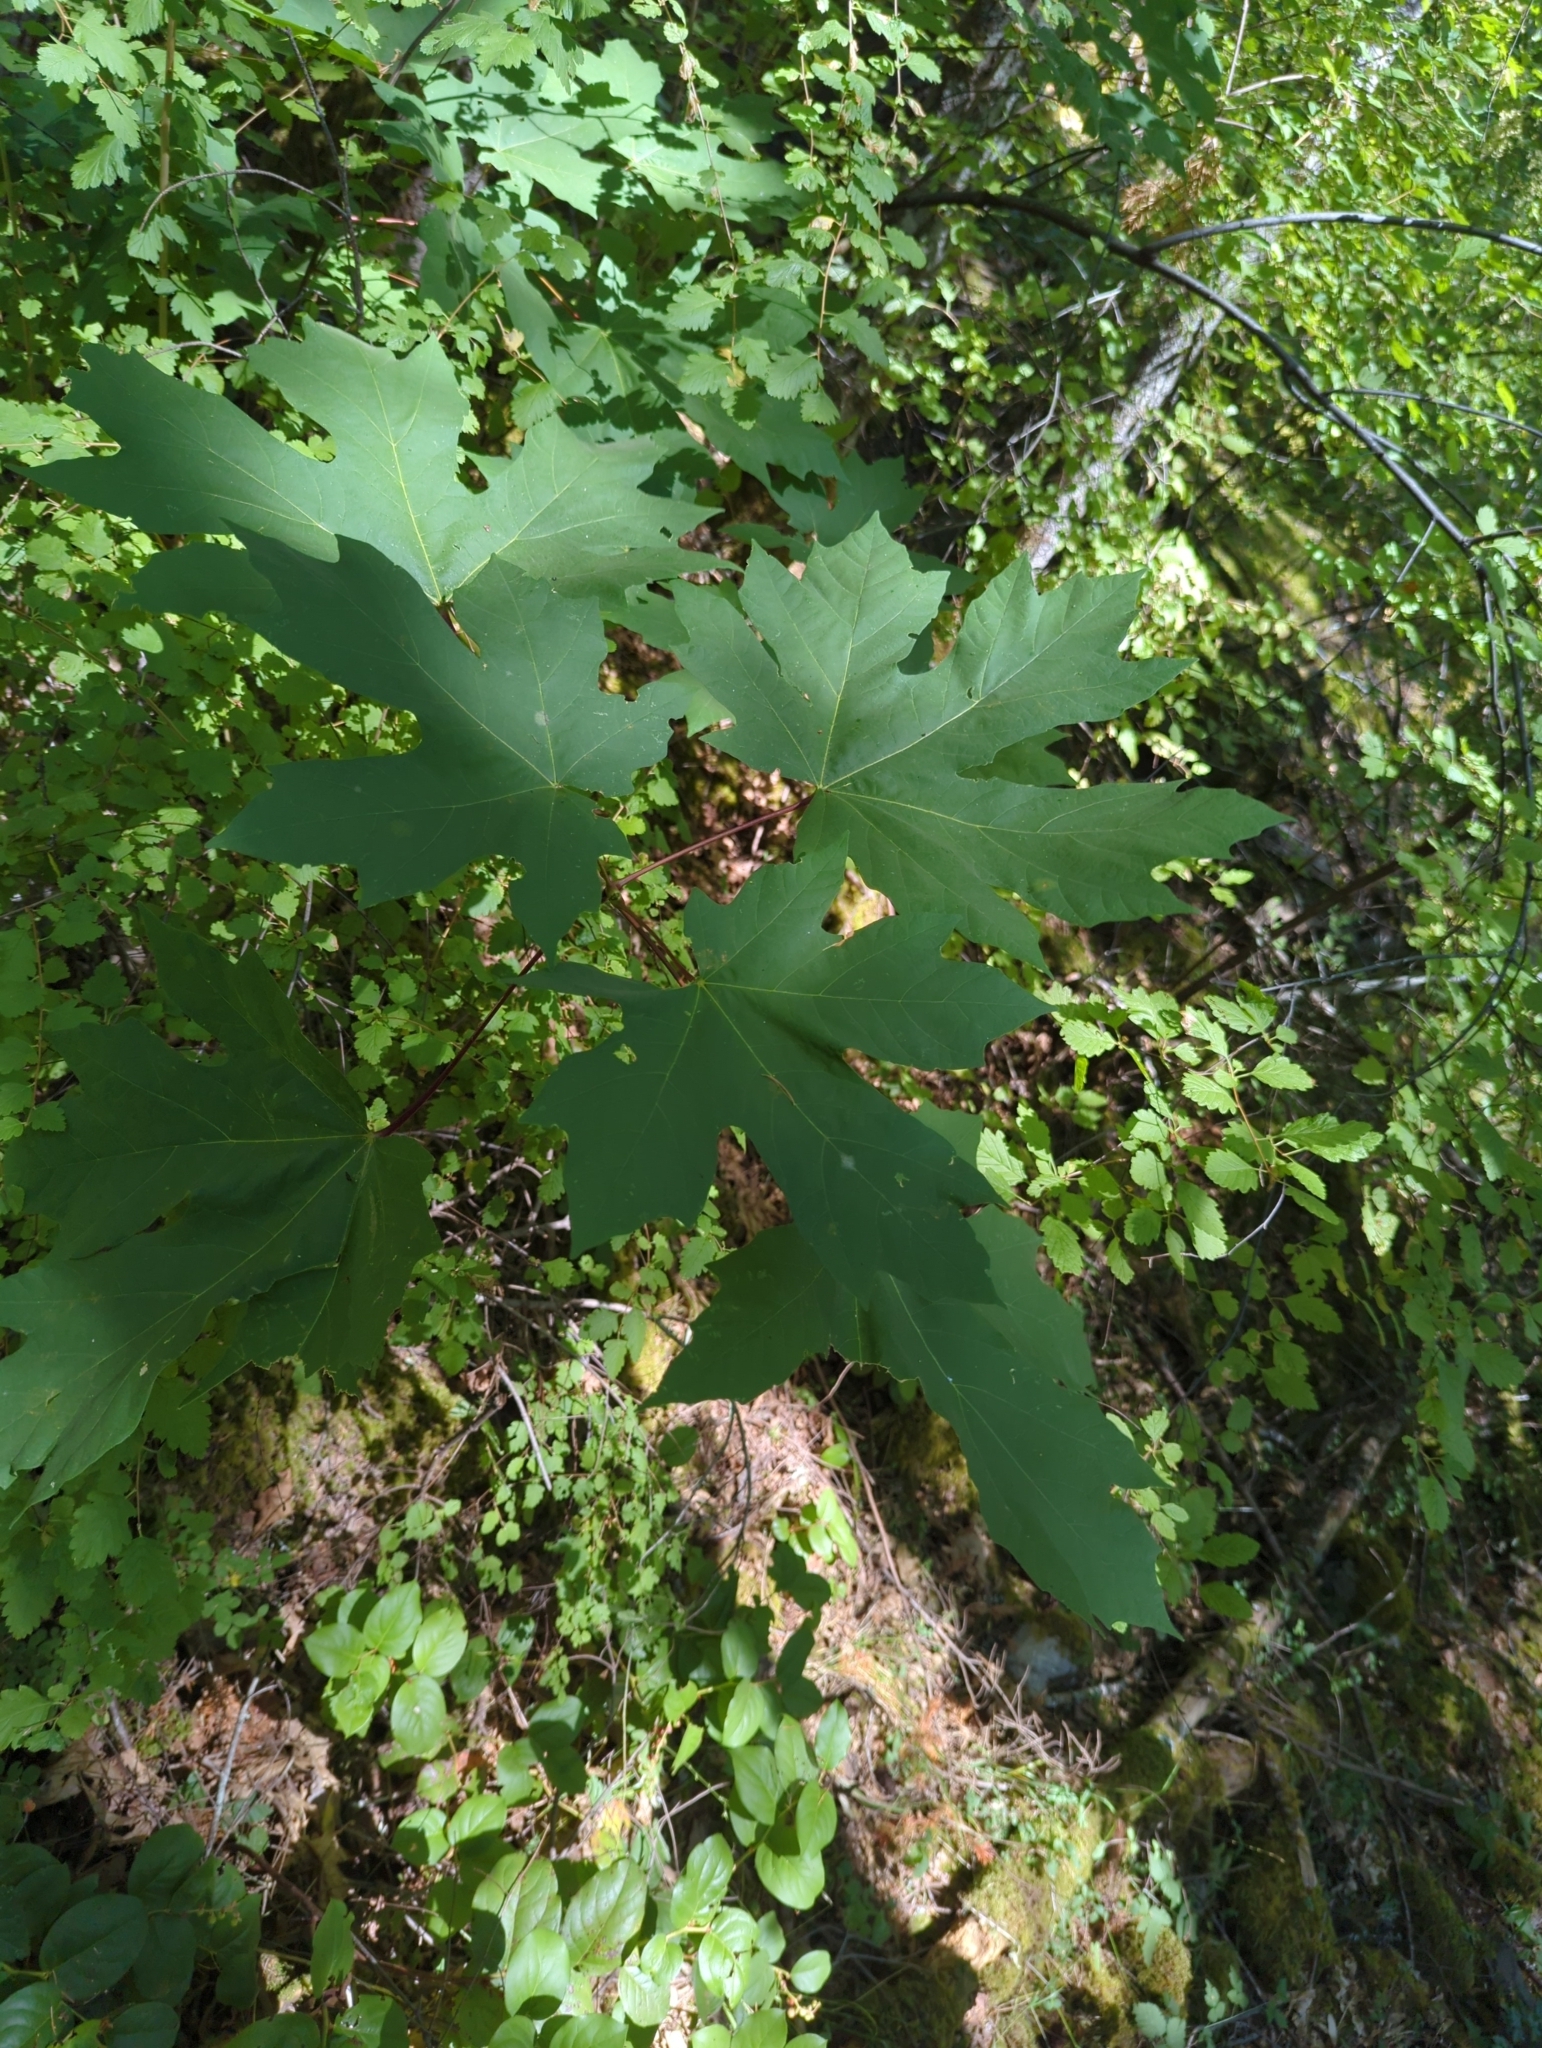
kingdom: Plantae
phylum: Tracheophyta
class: Magnoliopsida
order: Sapindales
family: Sapindaceae
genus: Acer
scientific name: Acer macrophyllum
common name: Oregon maple
